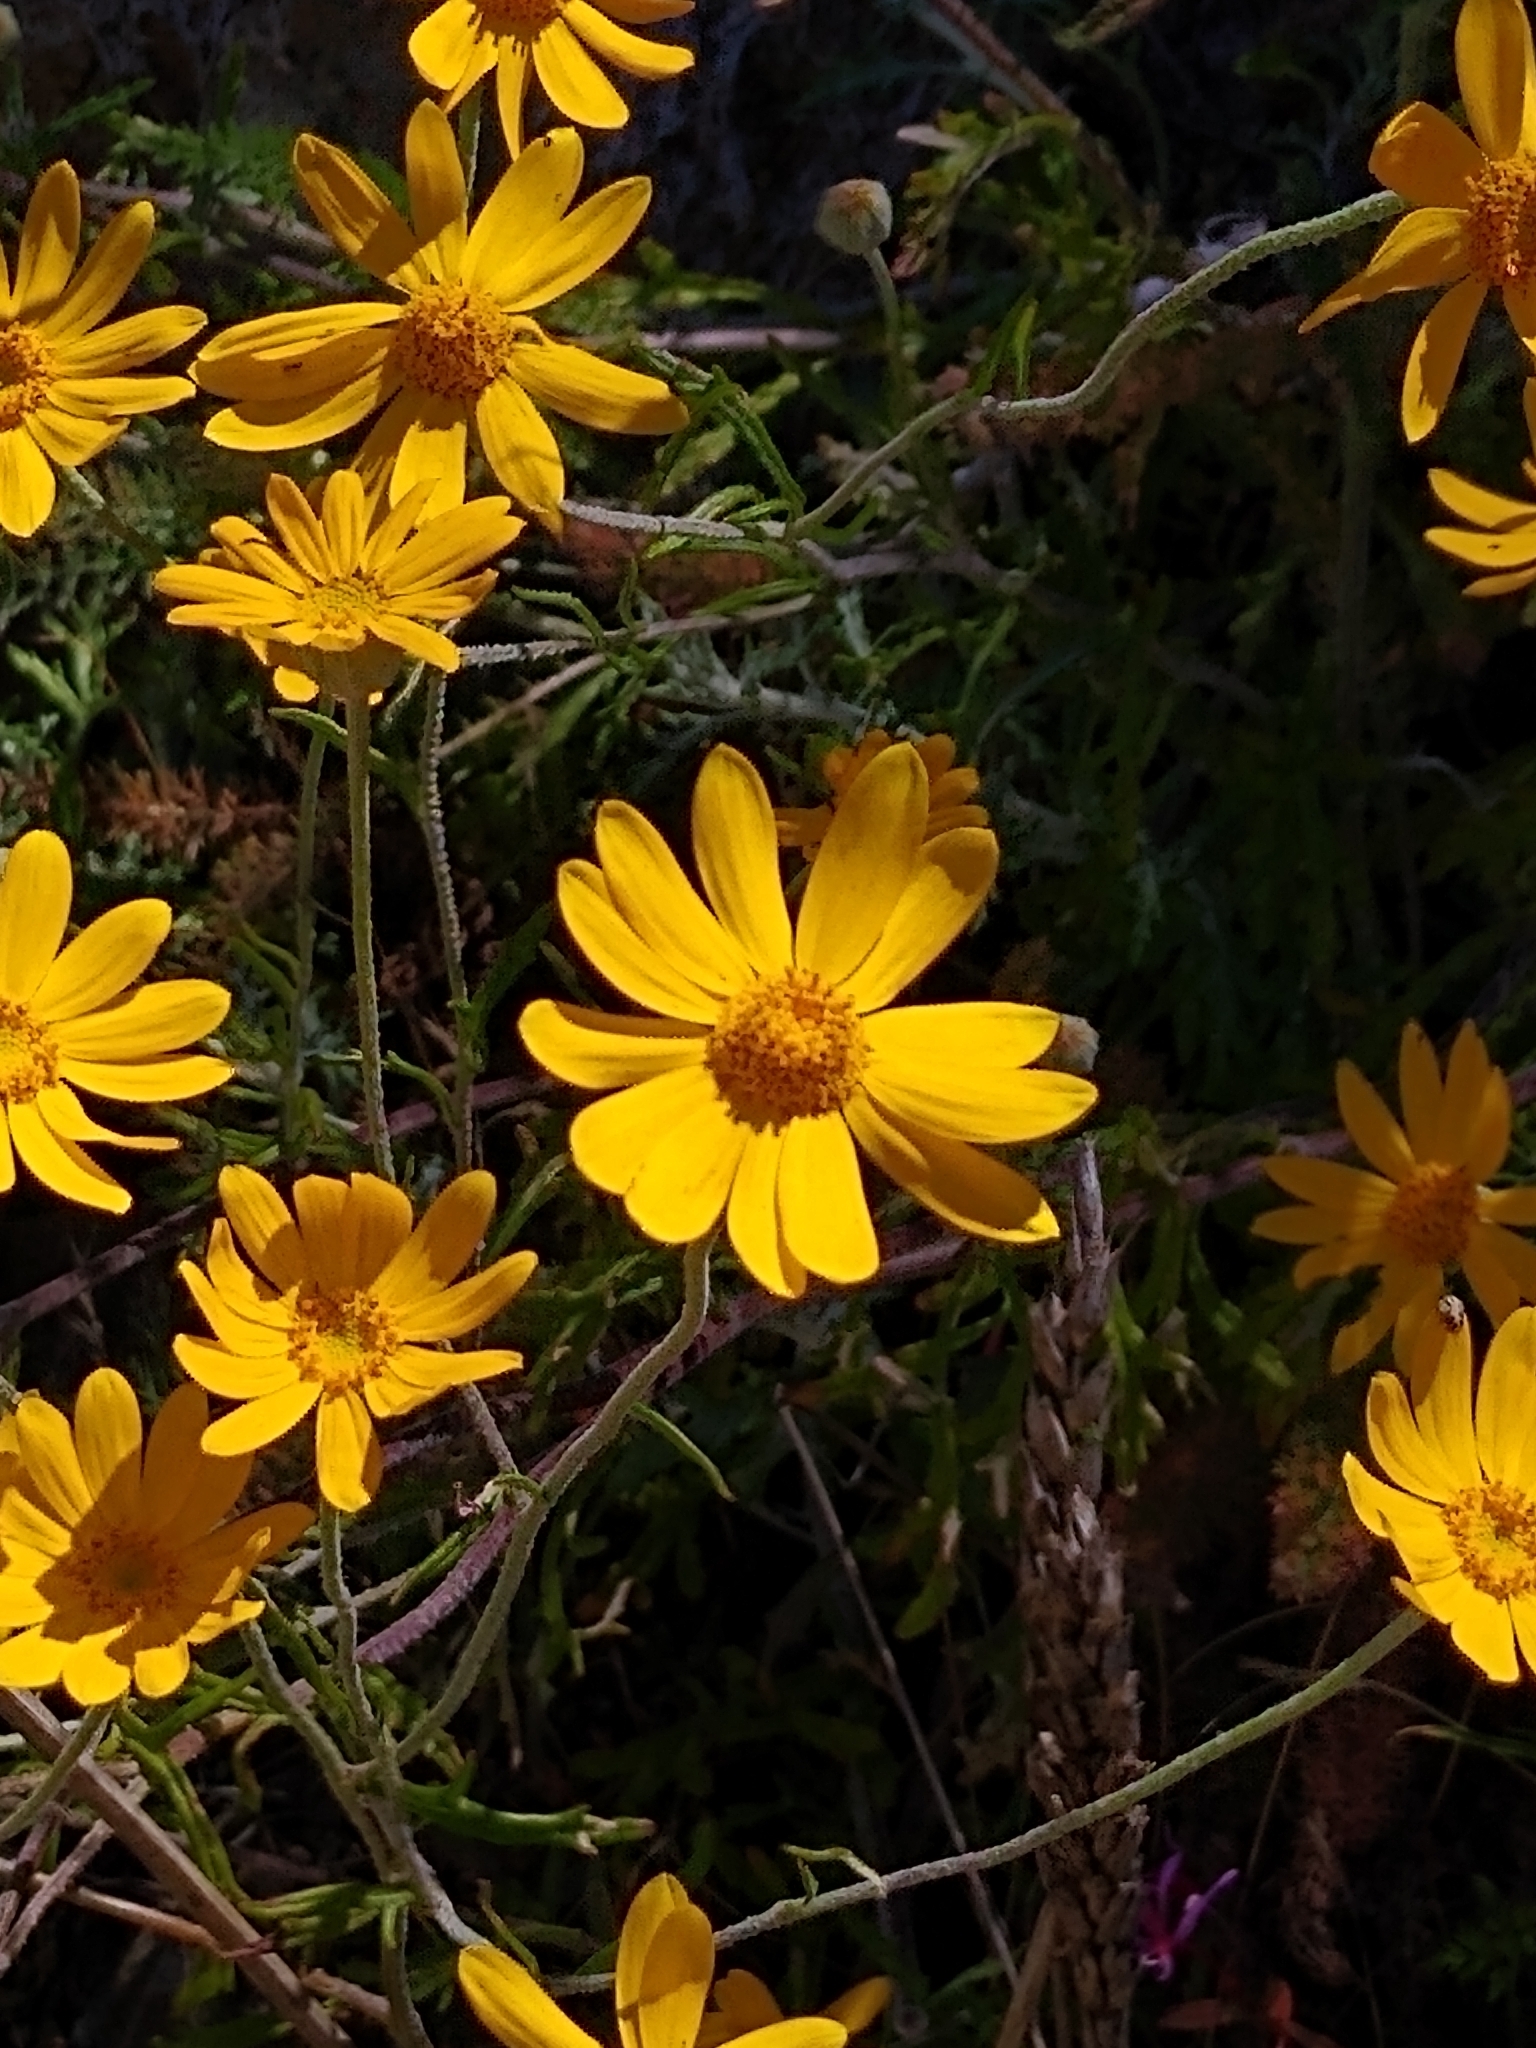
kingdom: Plantae
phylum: Tracheophyta
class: Magnoliopsida
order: Asterales
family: Asteraceae
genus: Eriophyllum
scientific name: Eriophyllum lanatum
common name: Common woolly-sunflower
